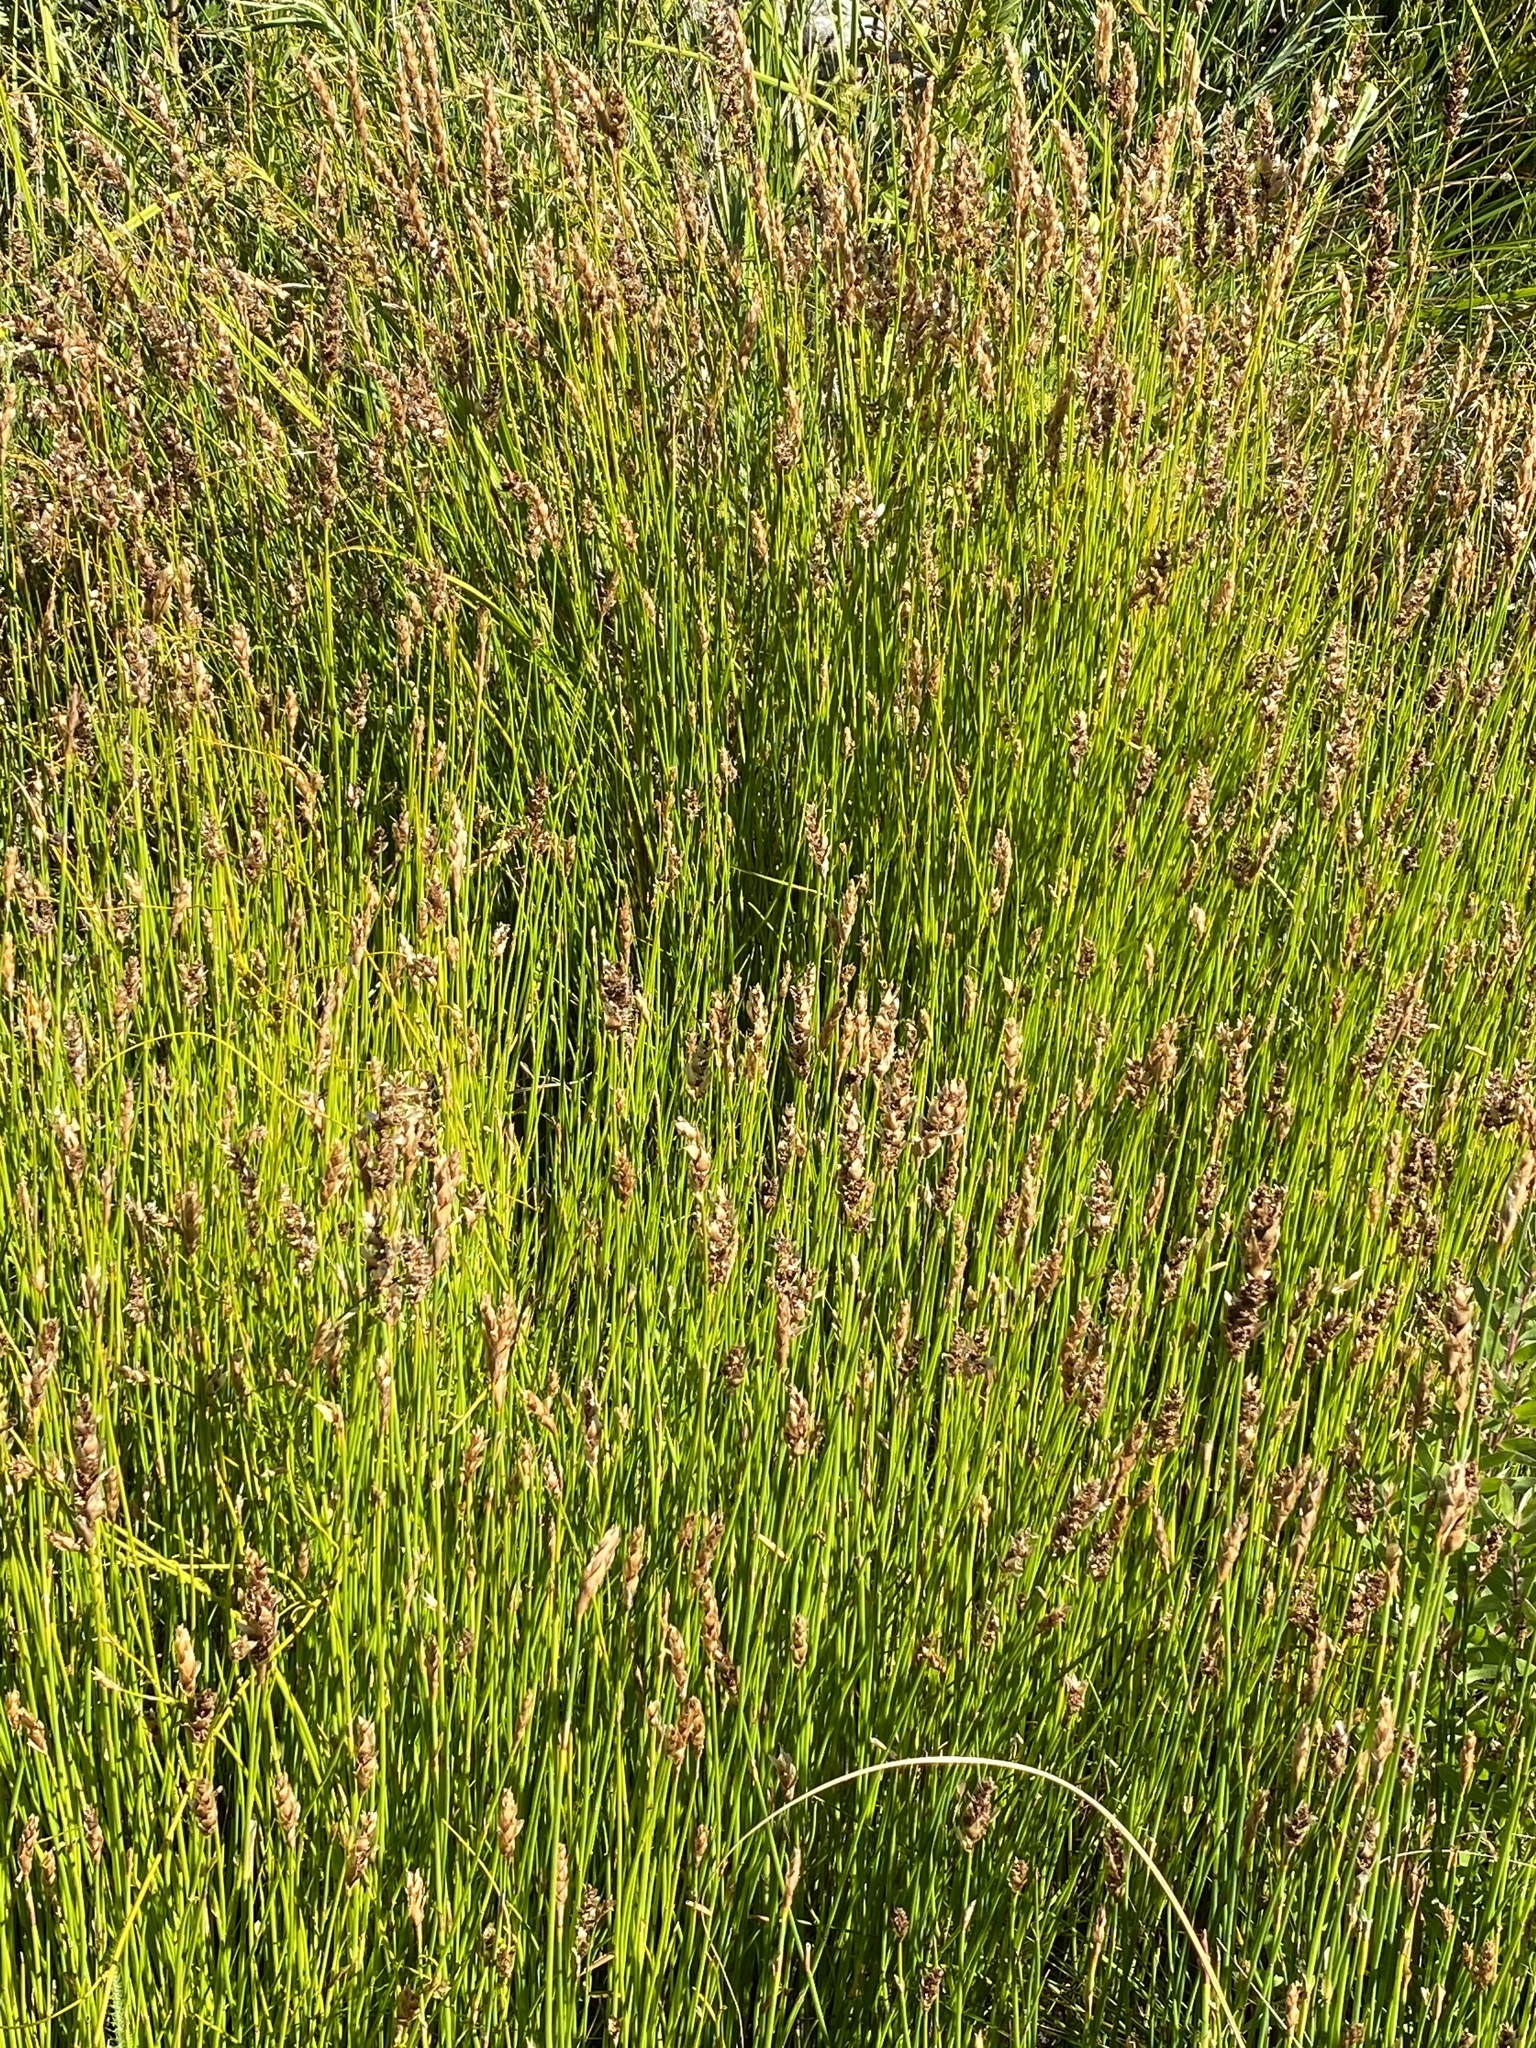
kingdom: Plantae
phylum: Tracheophyta
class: Liliopsida
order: Poales
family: Restionaceae
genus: Elegia
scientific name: Elegia fistulosa
